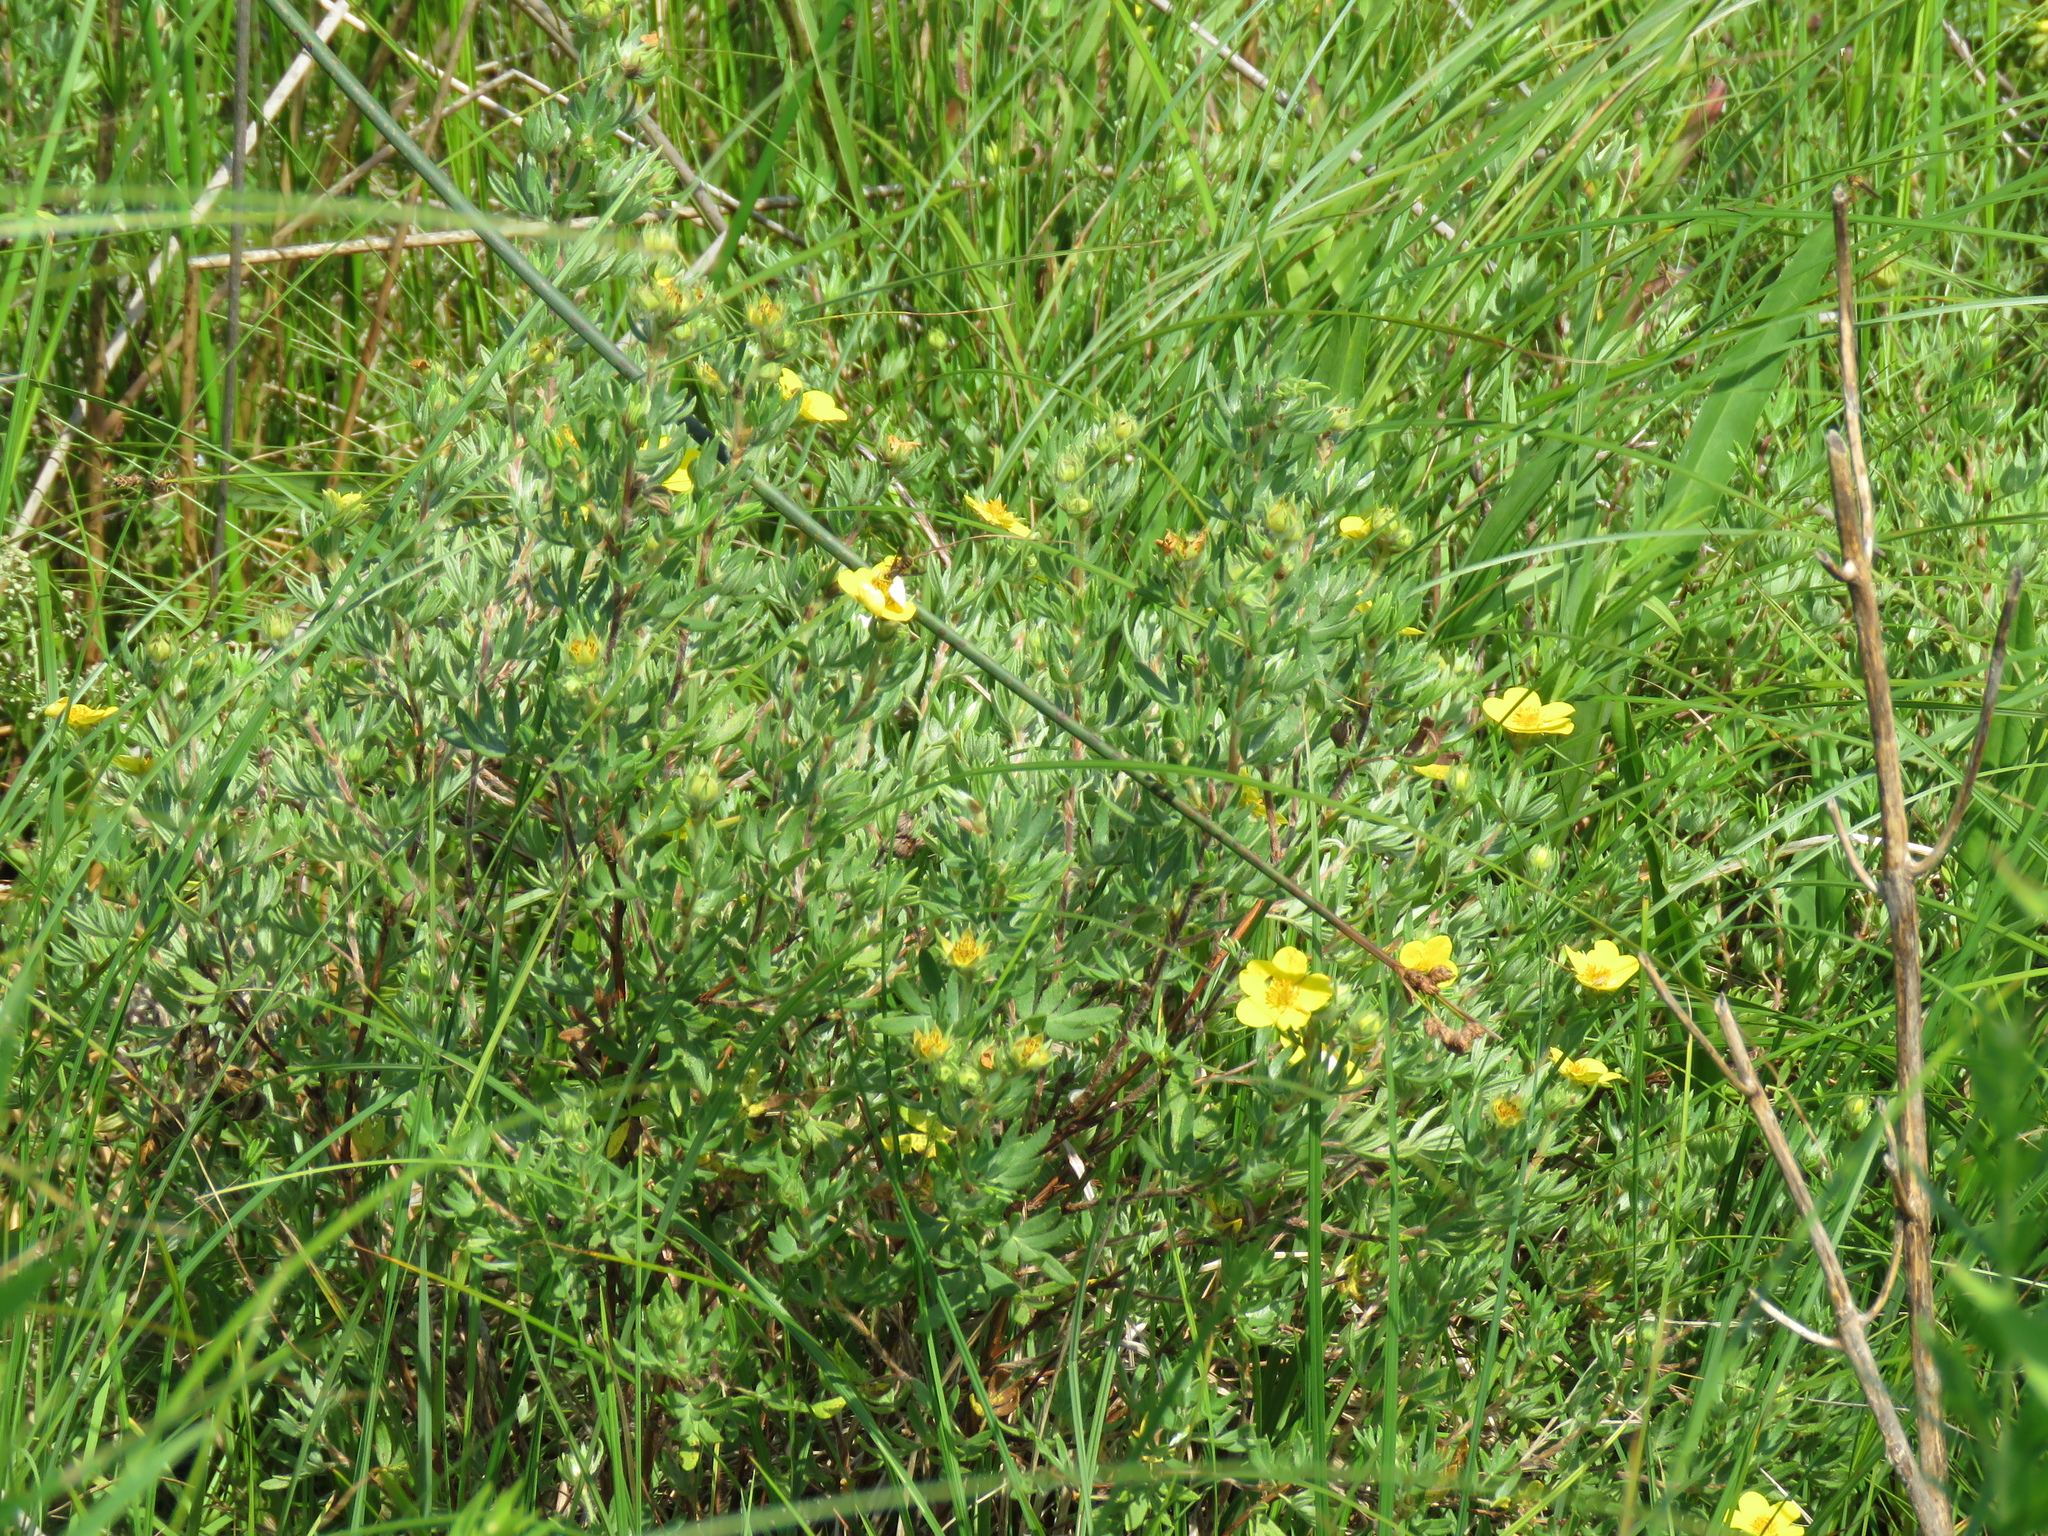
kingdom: Plantae
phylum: Tracheophyta
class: Magnoliopsida
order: Rosales
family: Rosaceae
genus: Dasiphora
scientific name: Dasiphora fruticosa
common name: Shrubby cinquefoil
